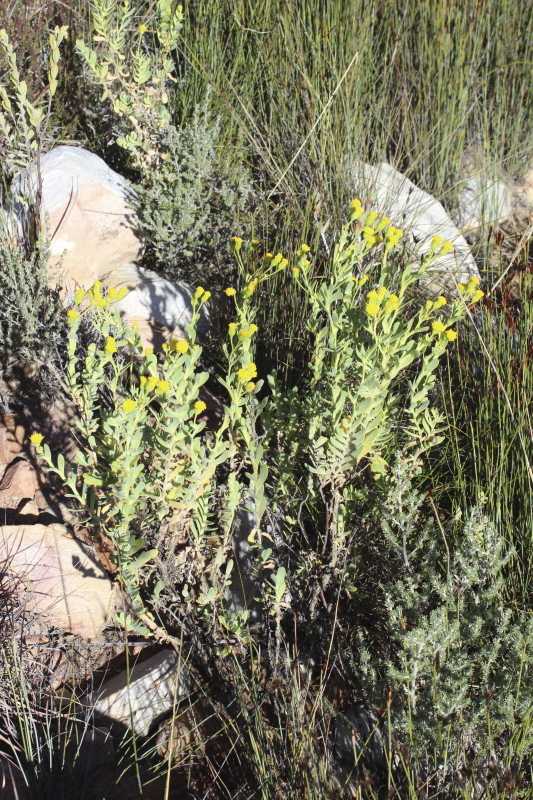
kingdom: Plantae
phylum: Tracheophyta
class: Magnoliopsida
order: Asterales
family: Asteraceae
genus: Hertia
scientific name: Hertia kraussii
